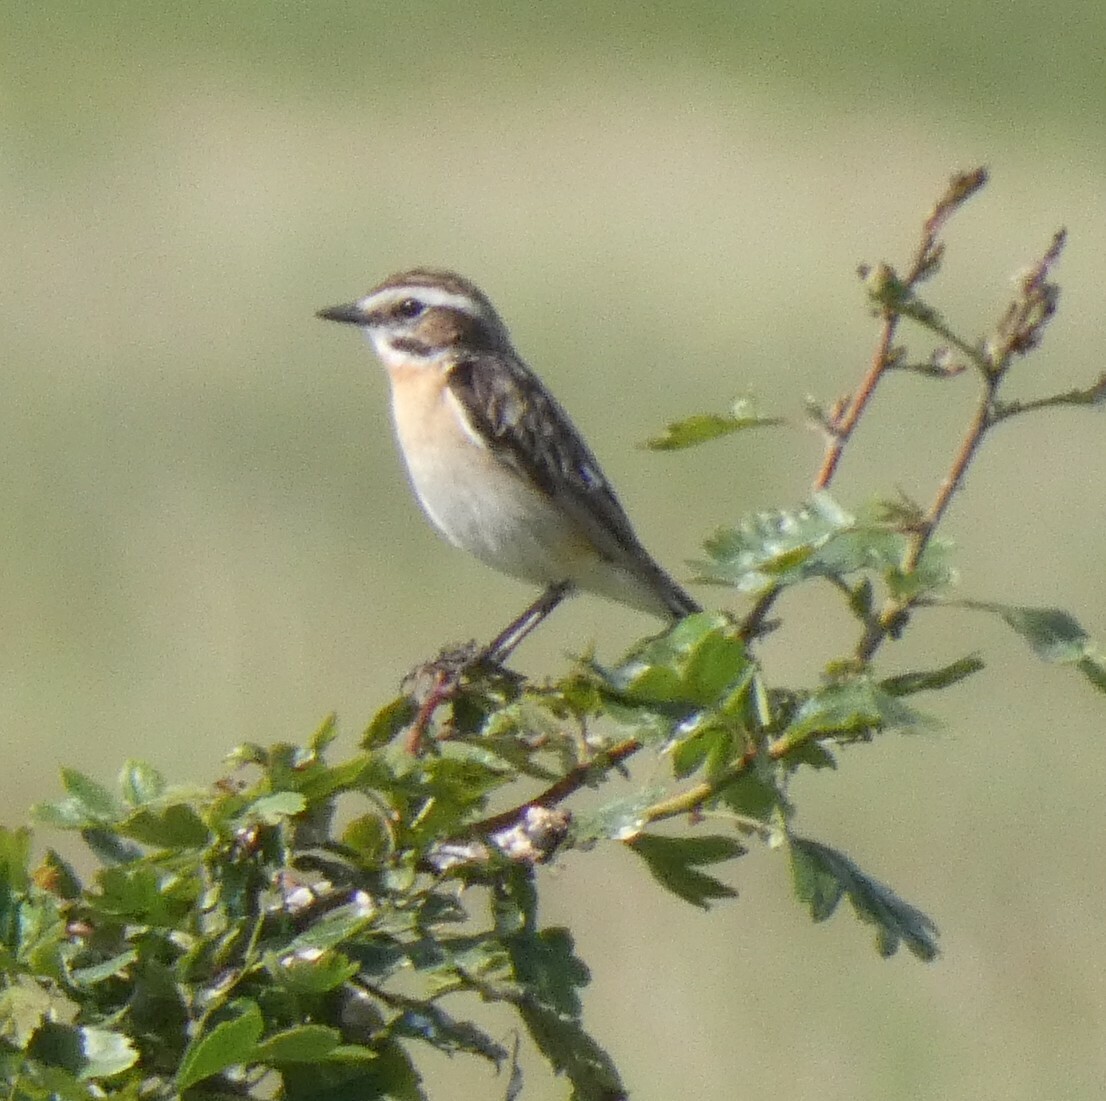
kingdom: Animalia
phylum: Chordata
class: Aves
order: Passeriformes
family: Muscicapidae
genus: Saxicola
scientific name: Saxicola rubetra
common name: Whinchat
